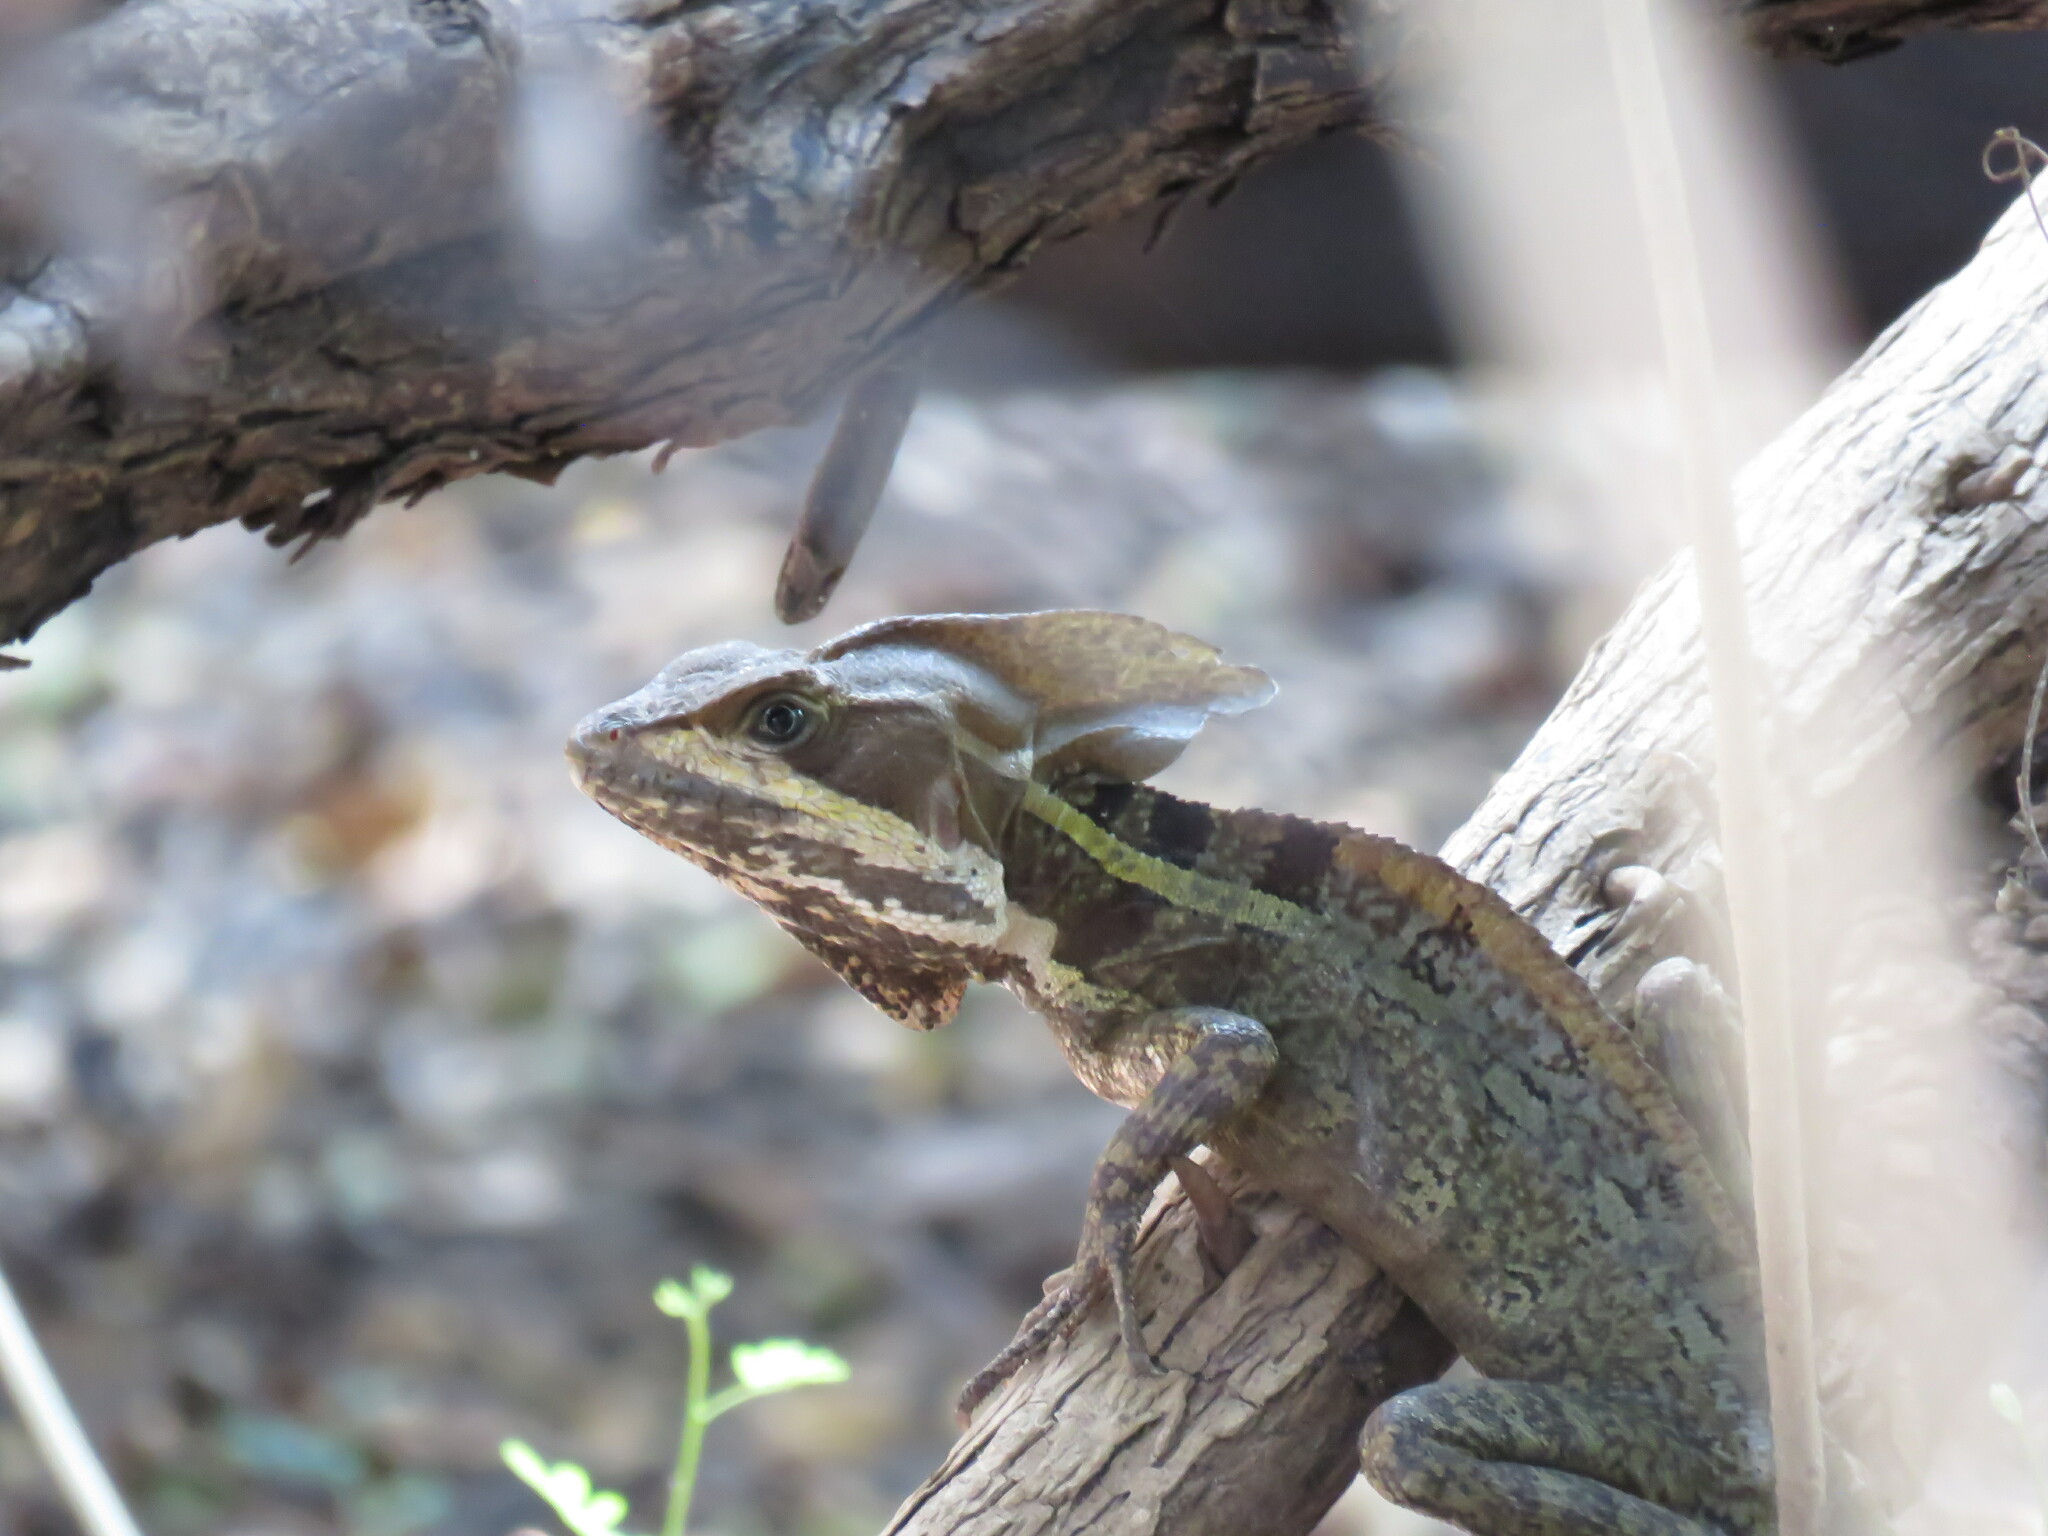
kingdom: Animalia
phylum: Chordata
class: Squamata
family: Corytophanidae
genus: Basiliscus
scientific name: Basiliscus vittatus
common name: Brown basilisk
